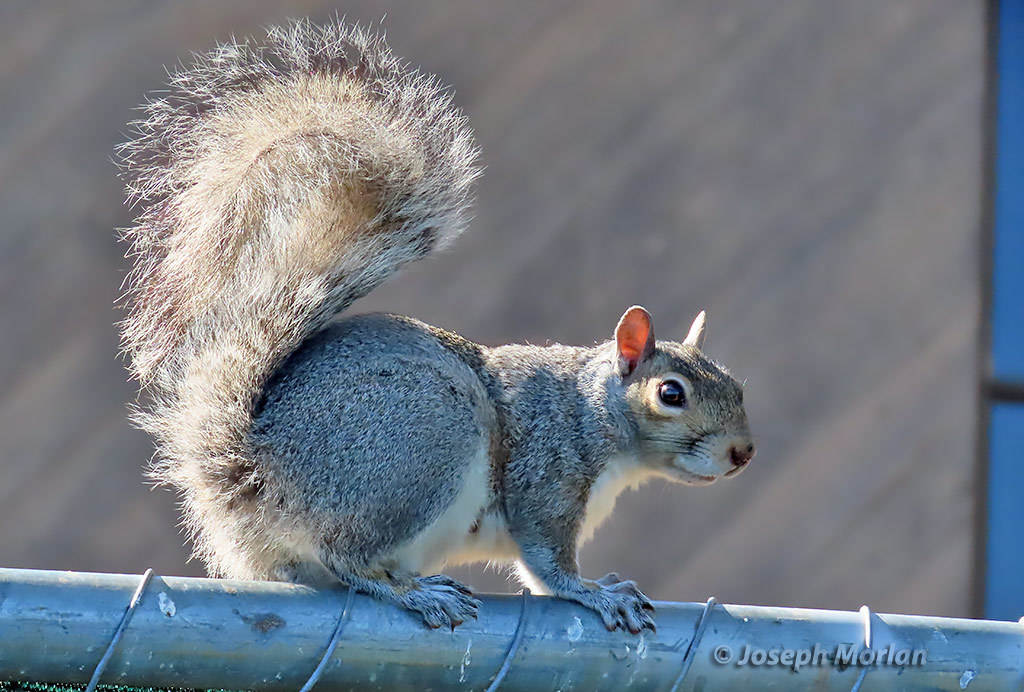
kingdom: Animalia
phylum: Chordata
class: Mammalia
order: Rodentia
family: Sciuridae
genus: Sciurus
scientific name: Sciurus carolinensis
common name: Eastern gray squirrel
